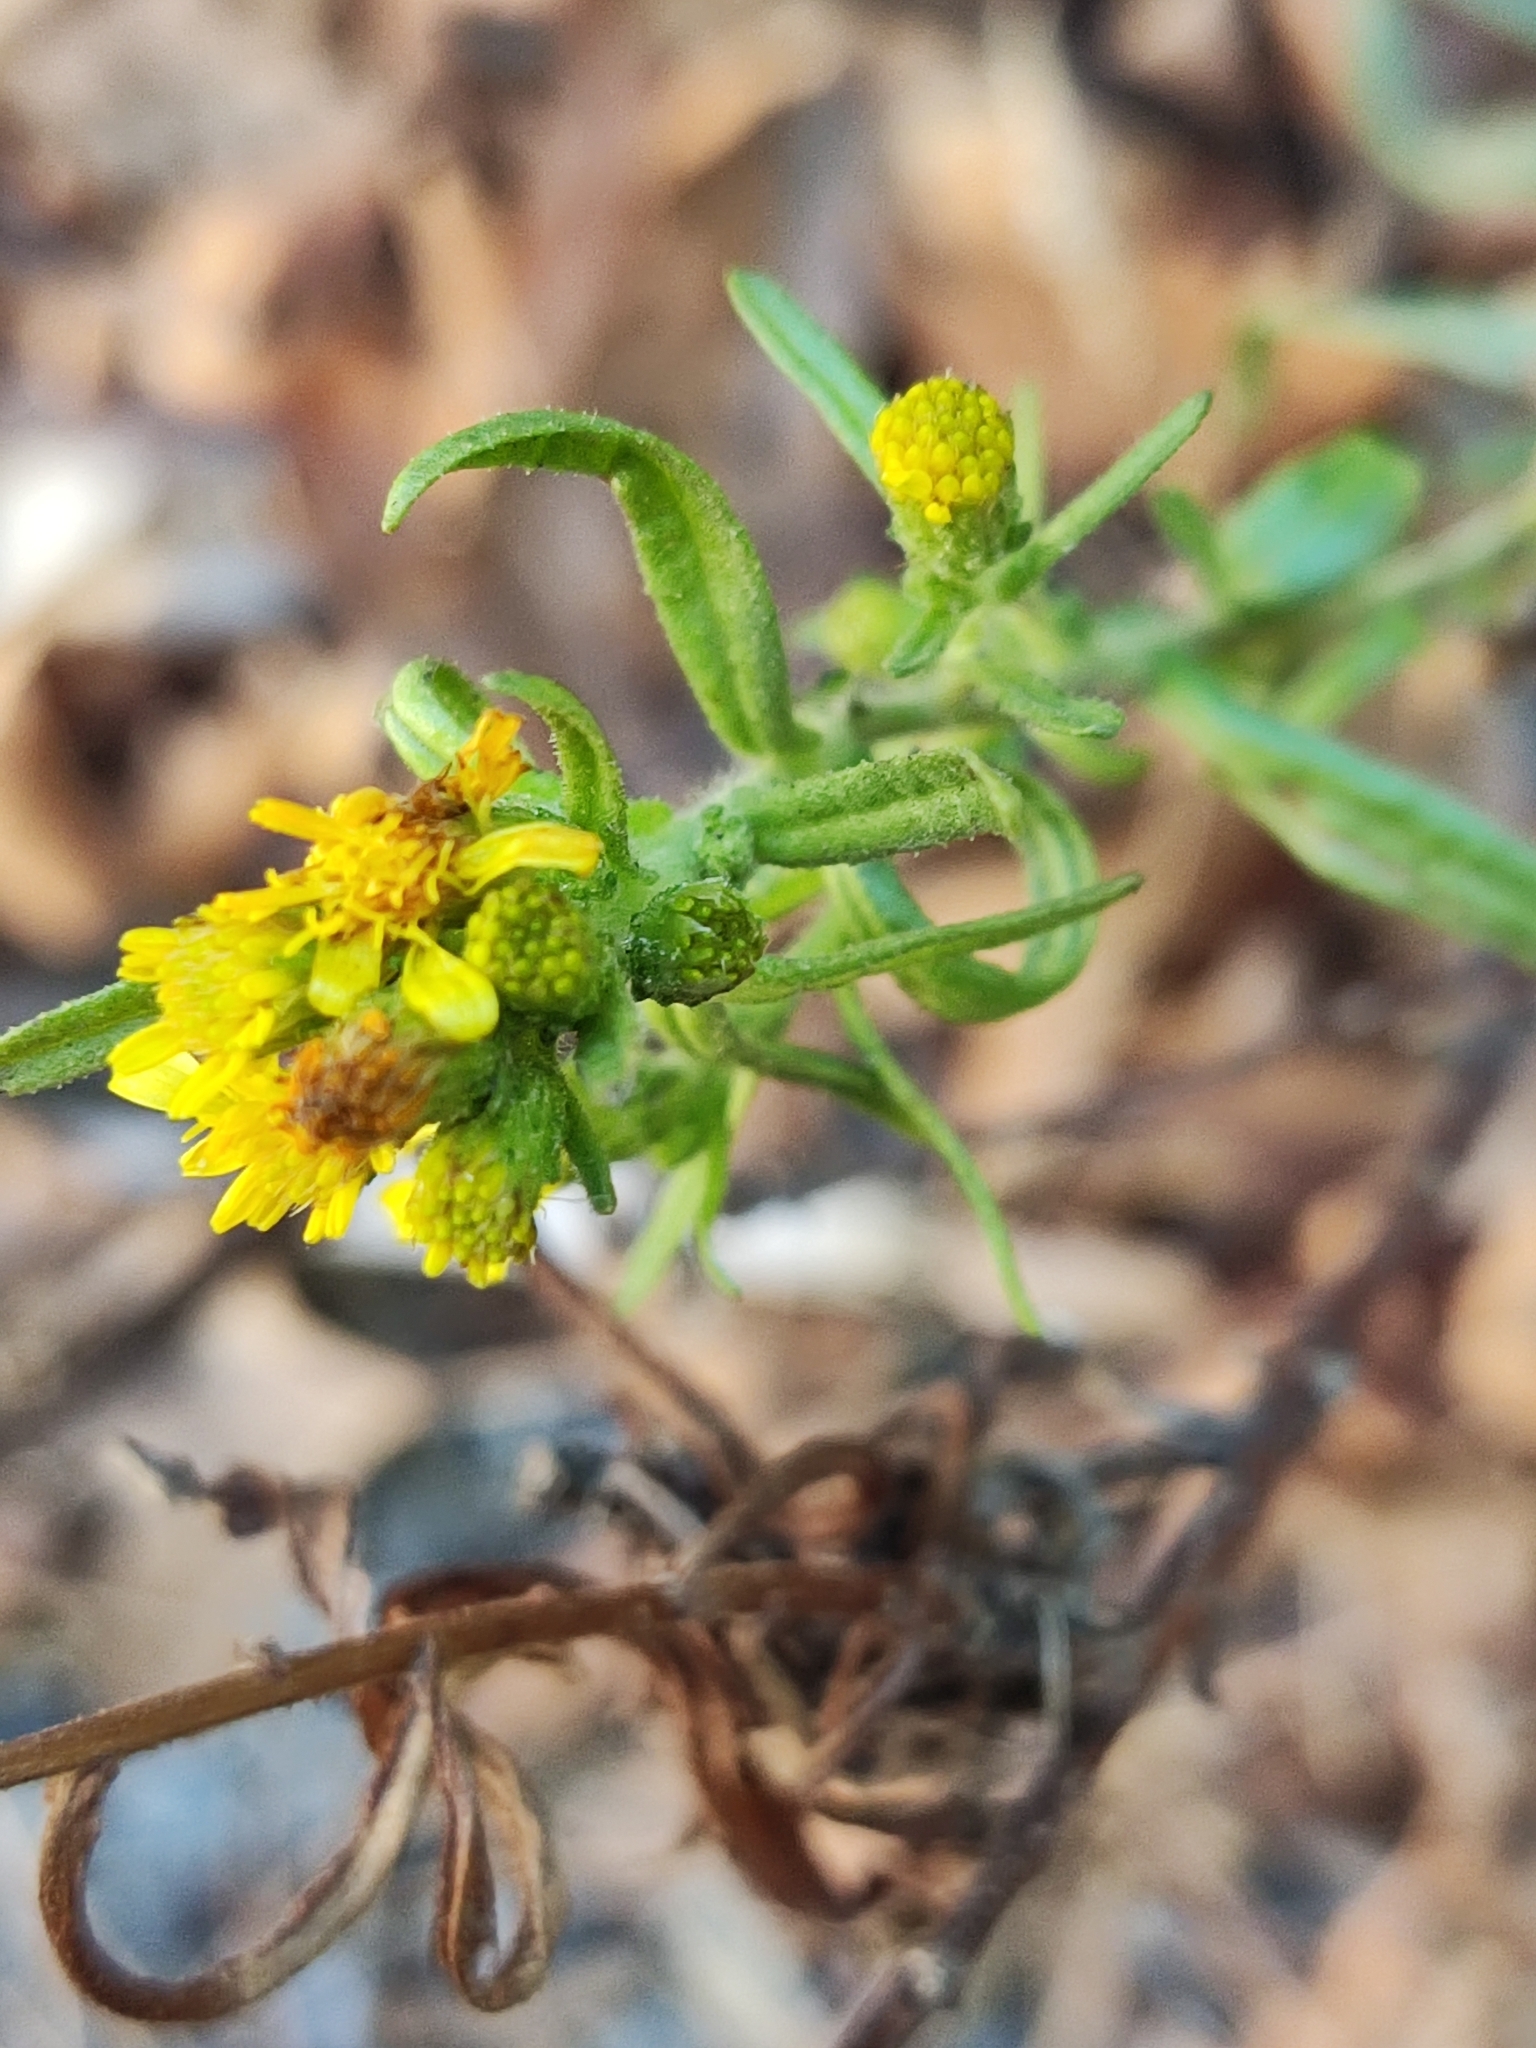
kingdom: Plantae
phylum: Tracheophyta
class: Magnoliopsida
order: Asterales
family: Asteraceae
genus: Dittrichia
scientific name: Dittrichia viscosa
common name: Woody fleabane
